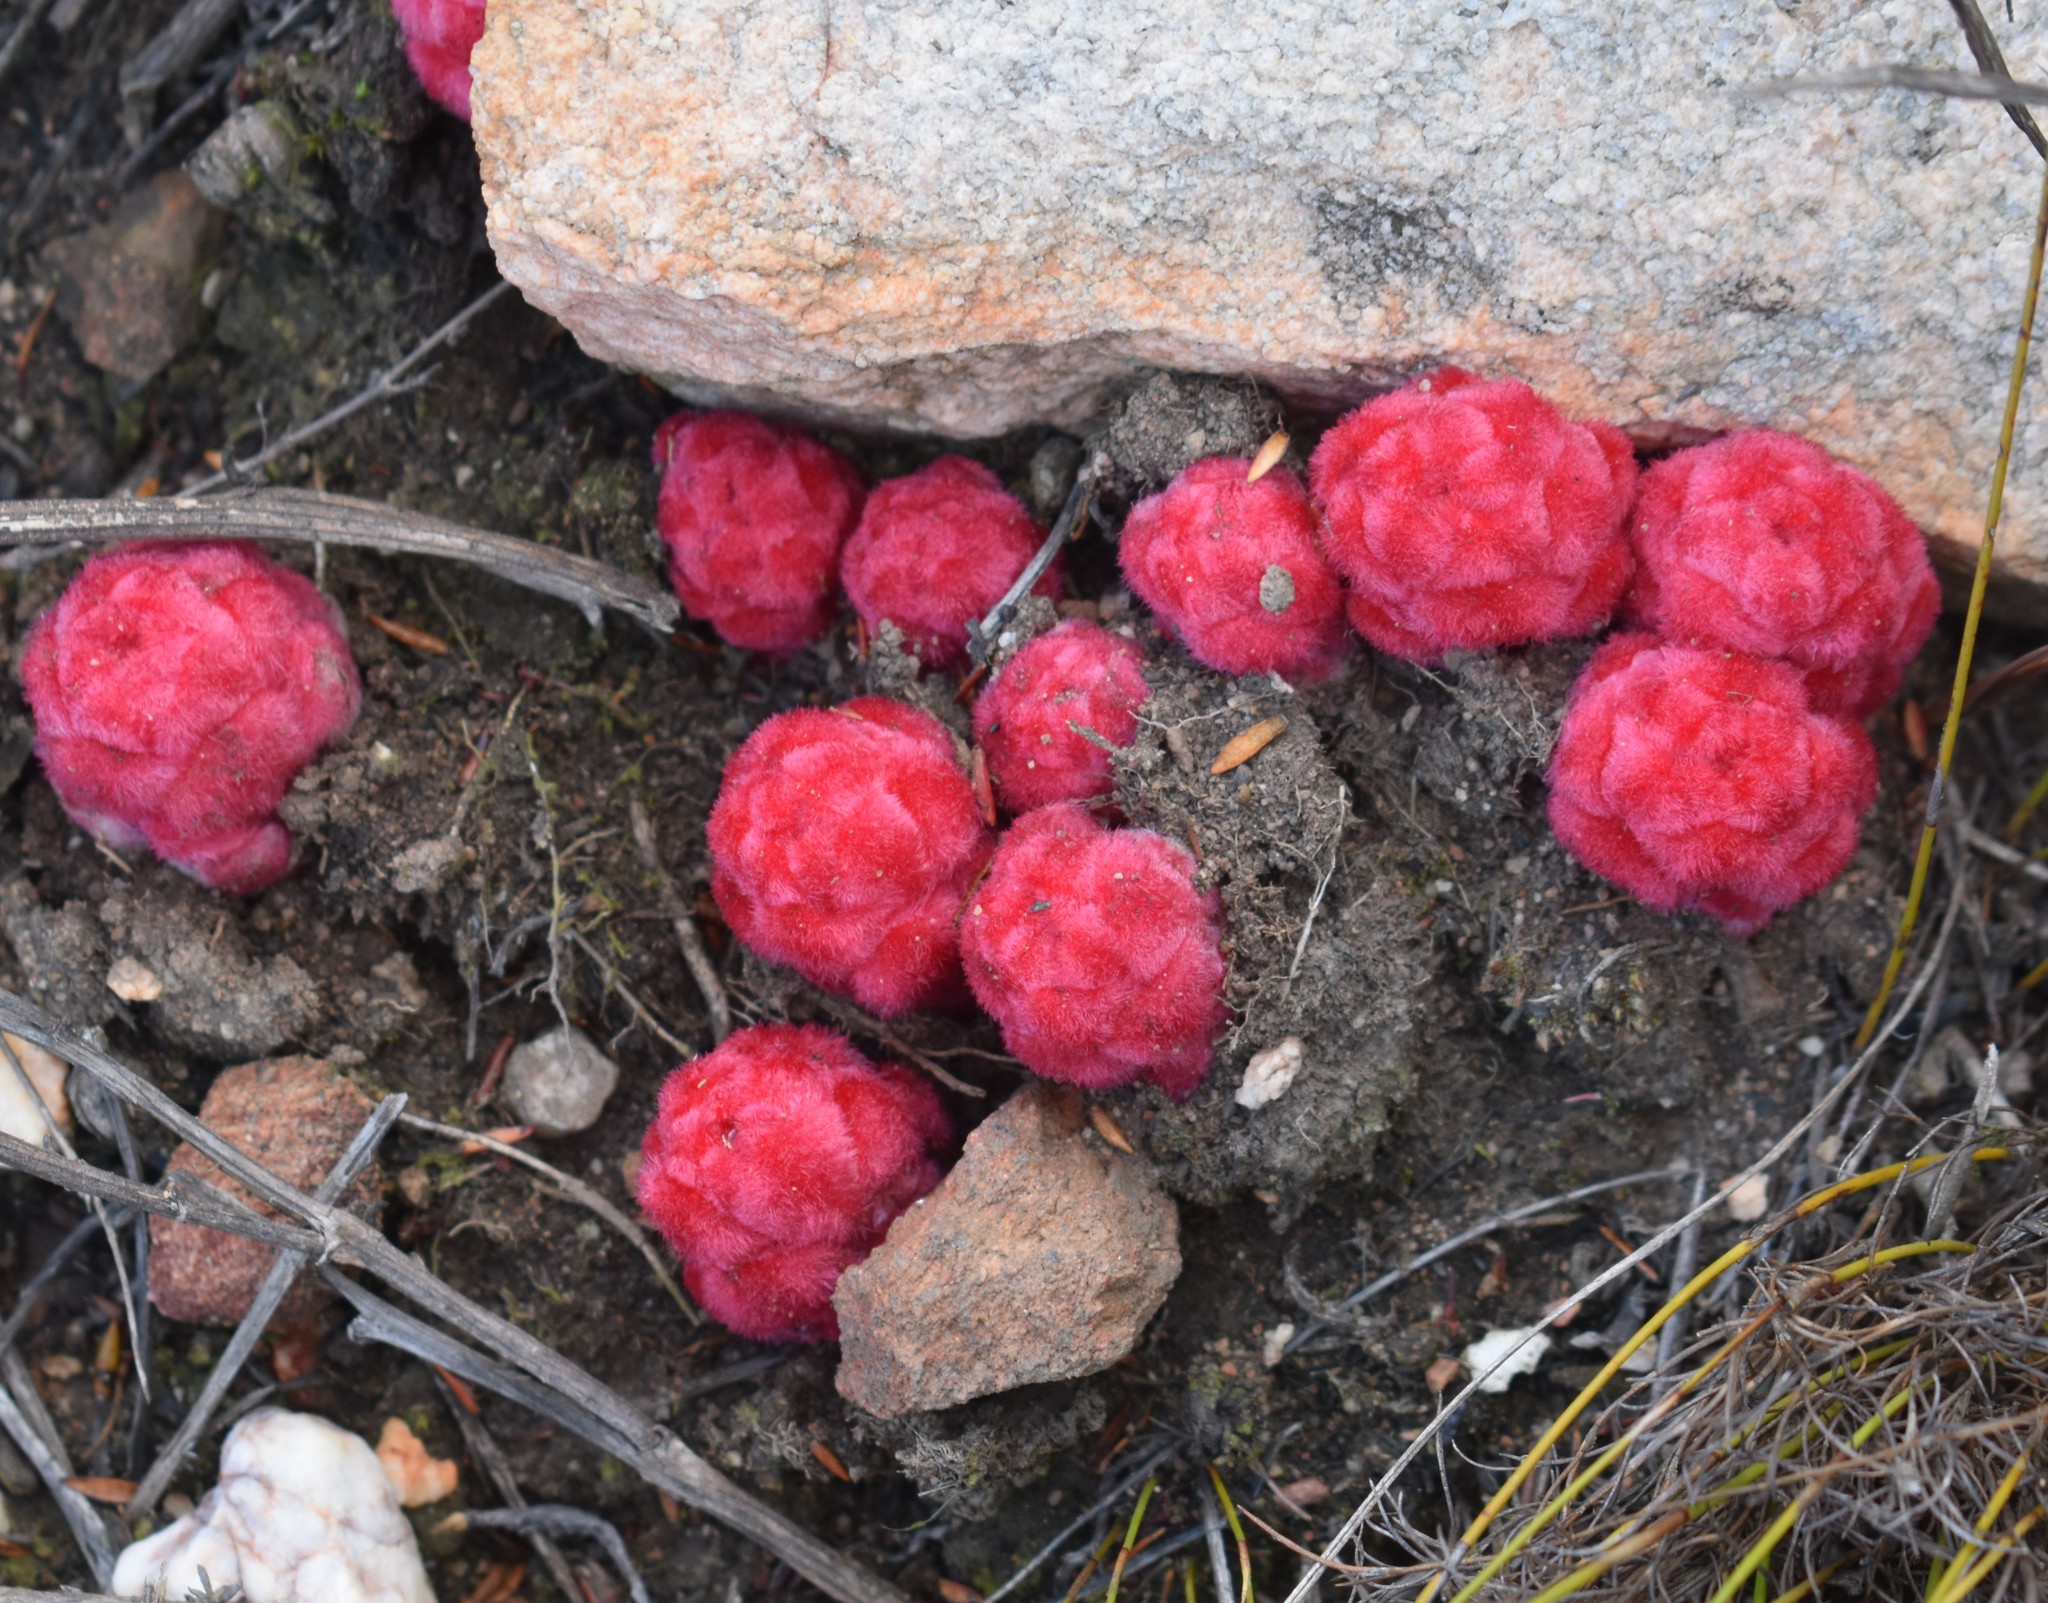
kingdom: Plantae
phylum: Tracheophyta
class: Magnoliopsida
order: Lamiales
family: Orobanchaceae
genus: Harveya
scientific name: Harveya roseoalba
